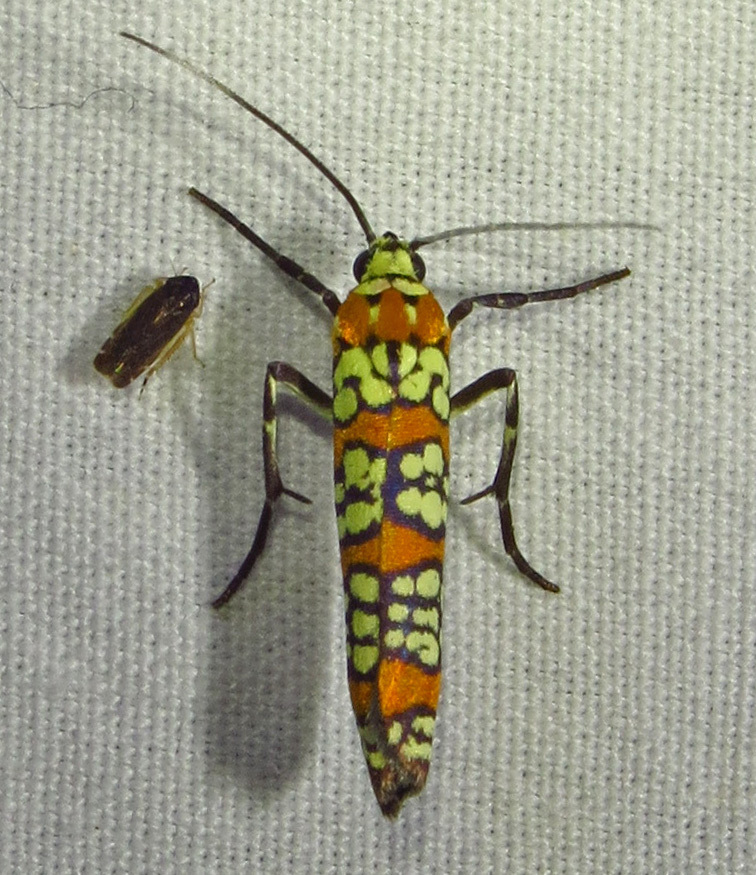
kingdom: Animalia
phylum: Arthropoda
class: Insecta
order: Lepidoptera
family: Attevidae
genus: Atteva
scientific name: Atteva punctella
